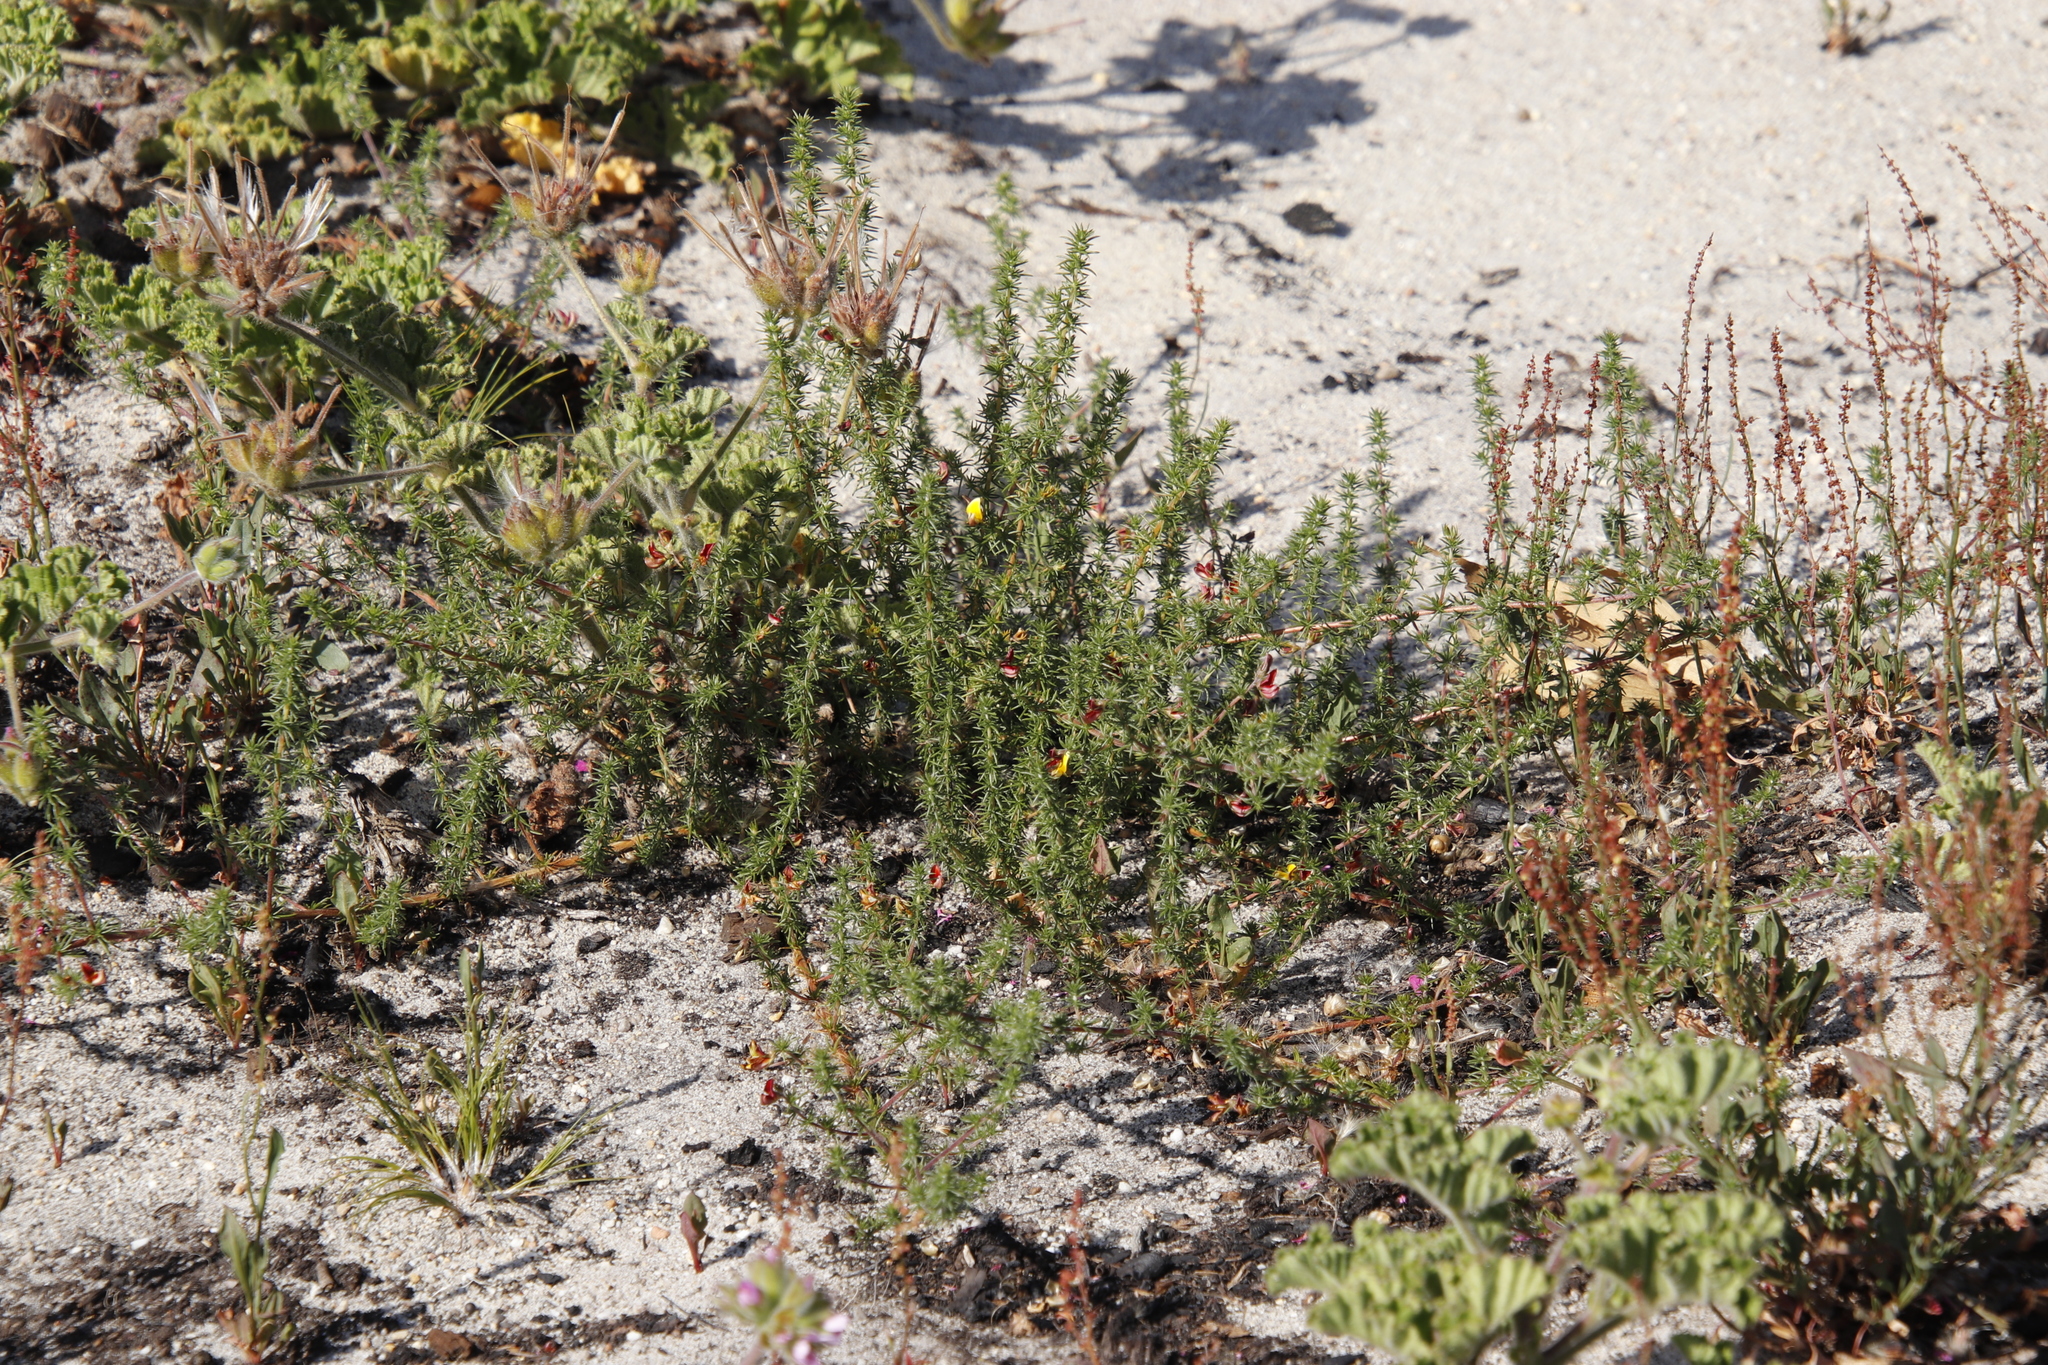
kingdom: Plantae
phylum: Tracheophyta
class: Magnoliopsida
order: Fabales
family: Fabaceae
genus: Aspalathus
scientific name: Aspalathus retroflexa
